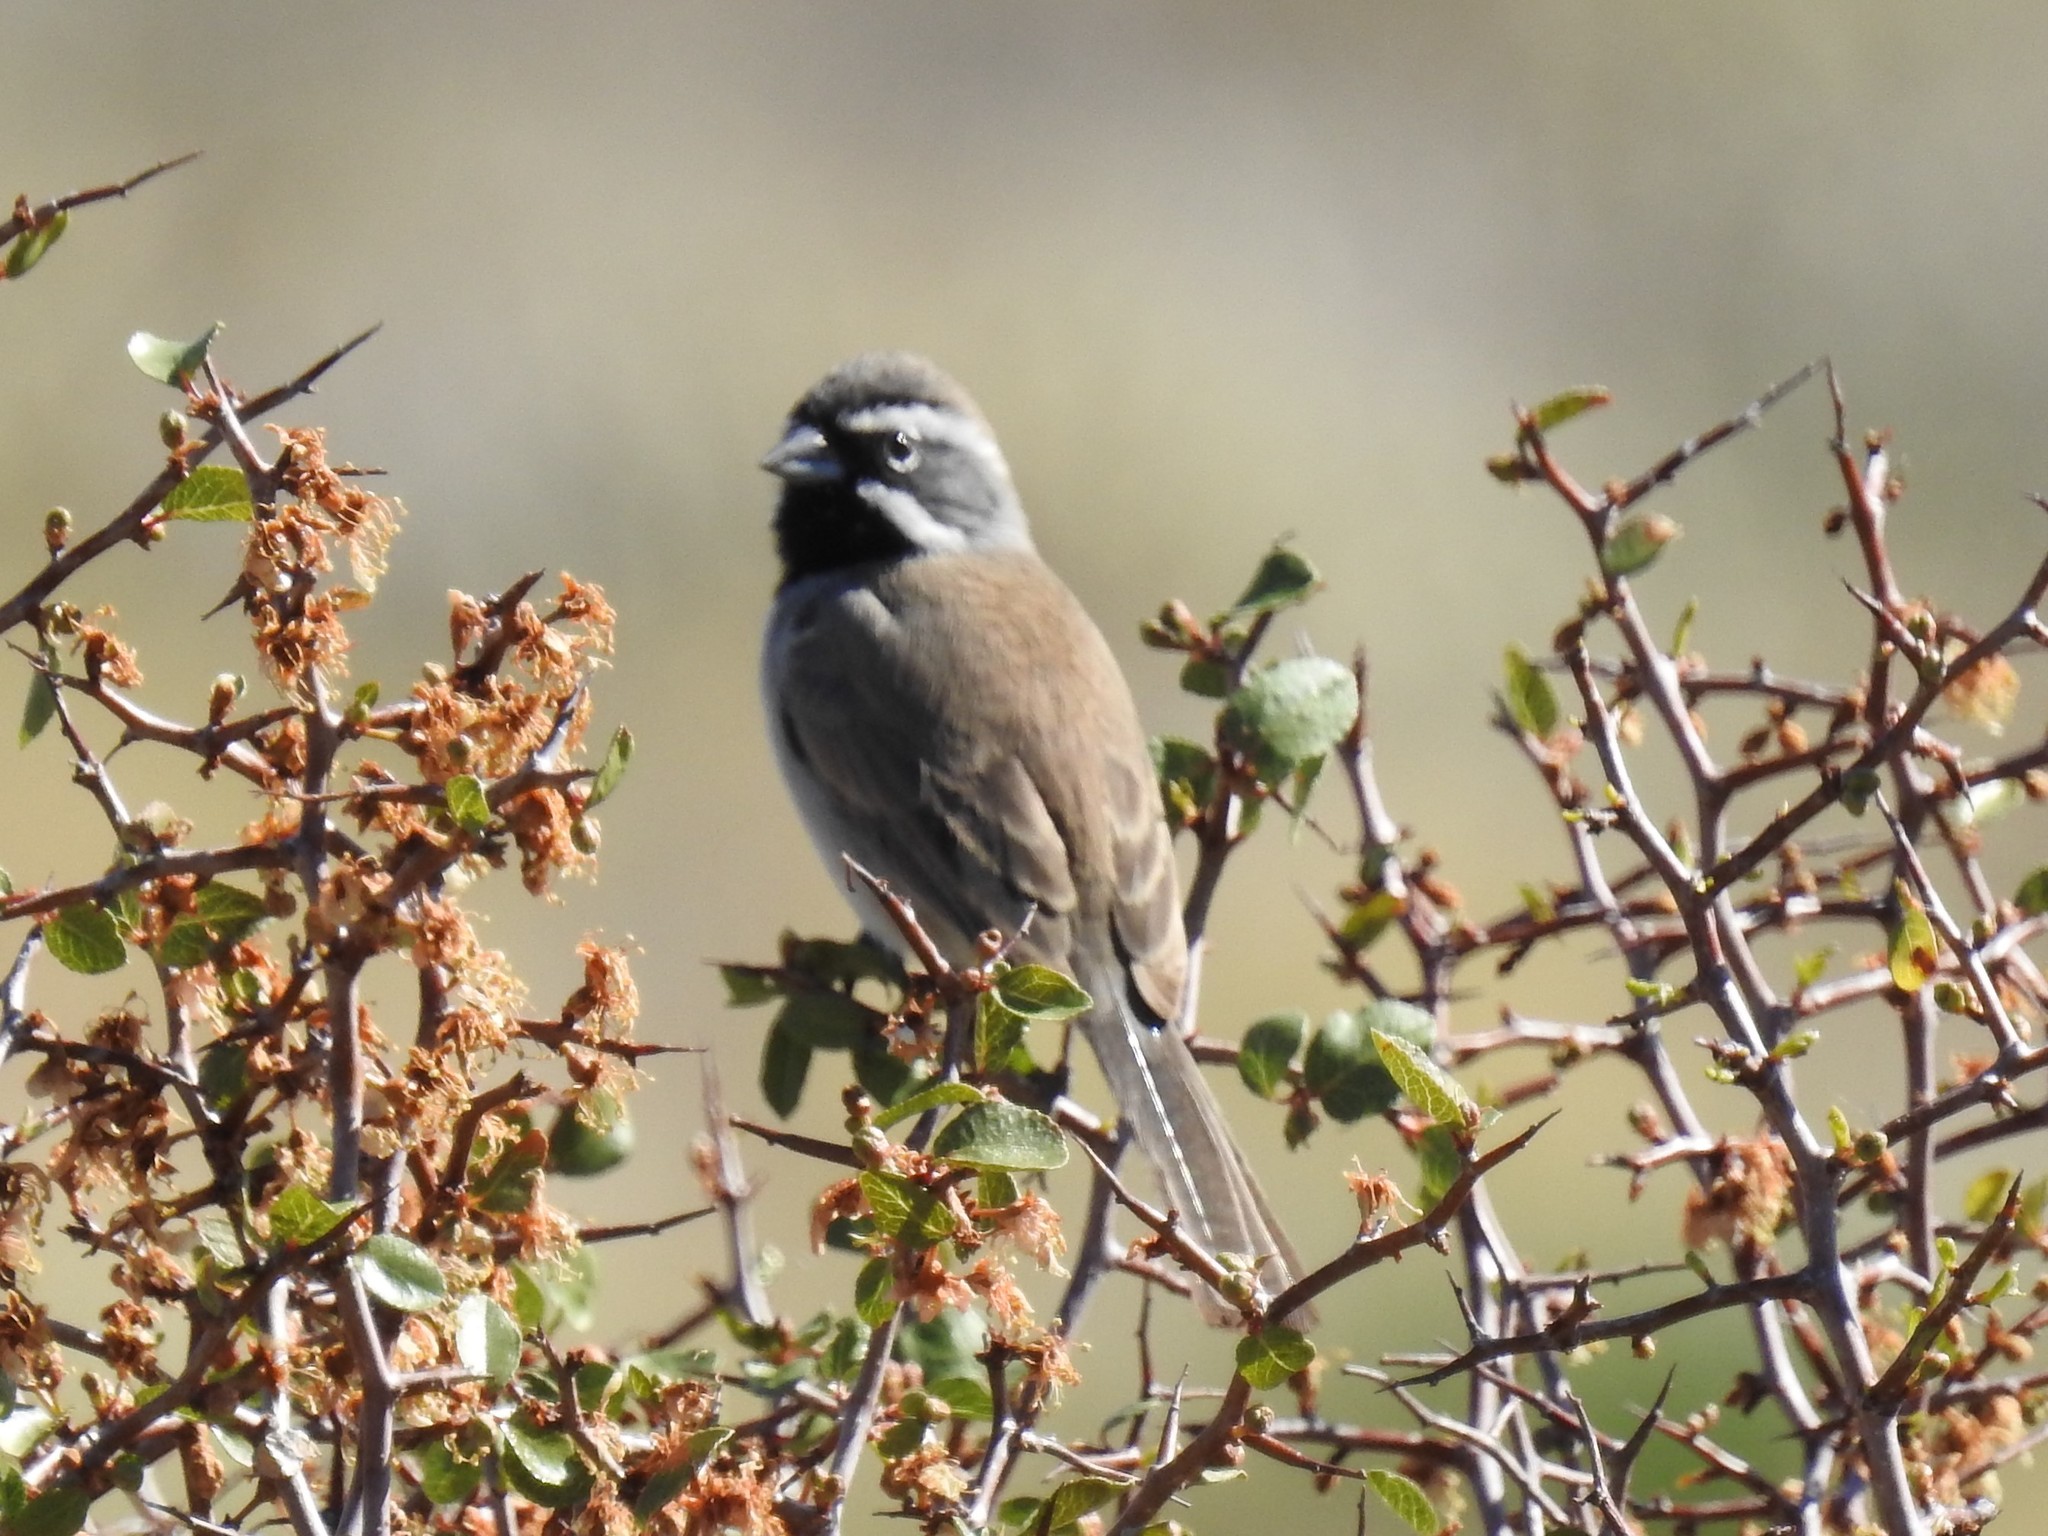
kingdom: Animalia
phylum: Chordata
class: Aves
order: Passeriformes
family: Passerellidae
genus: Amphispiza
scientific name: Amphispiza bilineata
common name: Black-throated sparrow
